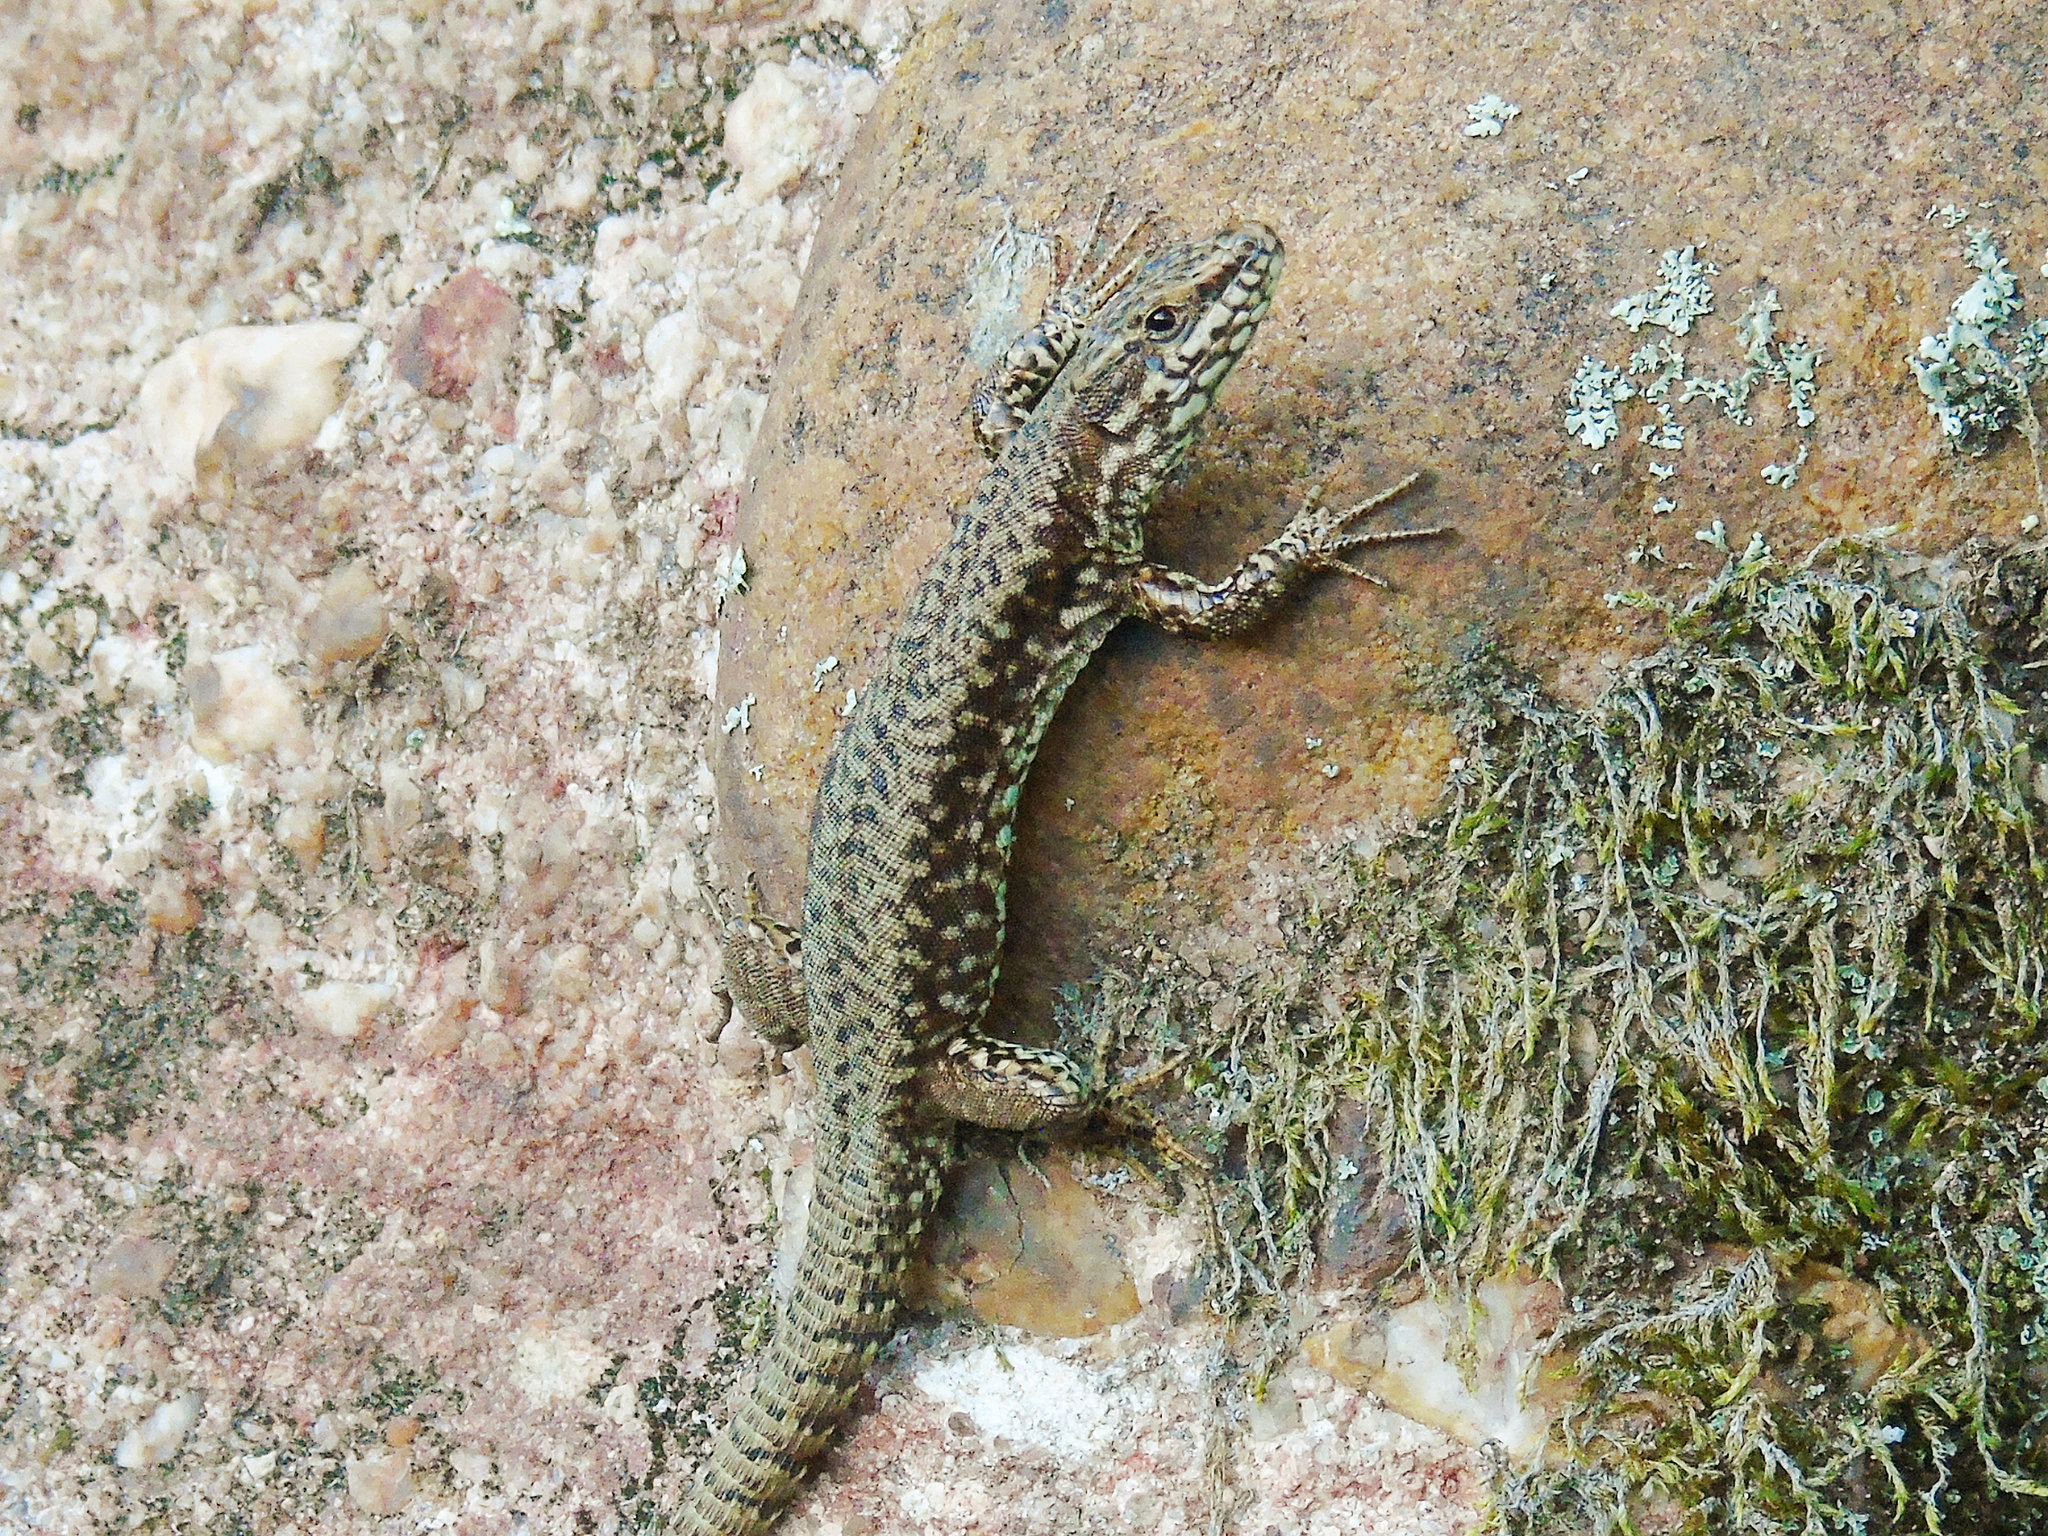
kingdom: Animalia
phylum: Chordata
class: Squamata
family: Lacertidae
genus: Podarcis
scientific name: Podarcis muralis
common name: Common wall lizard
